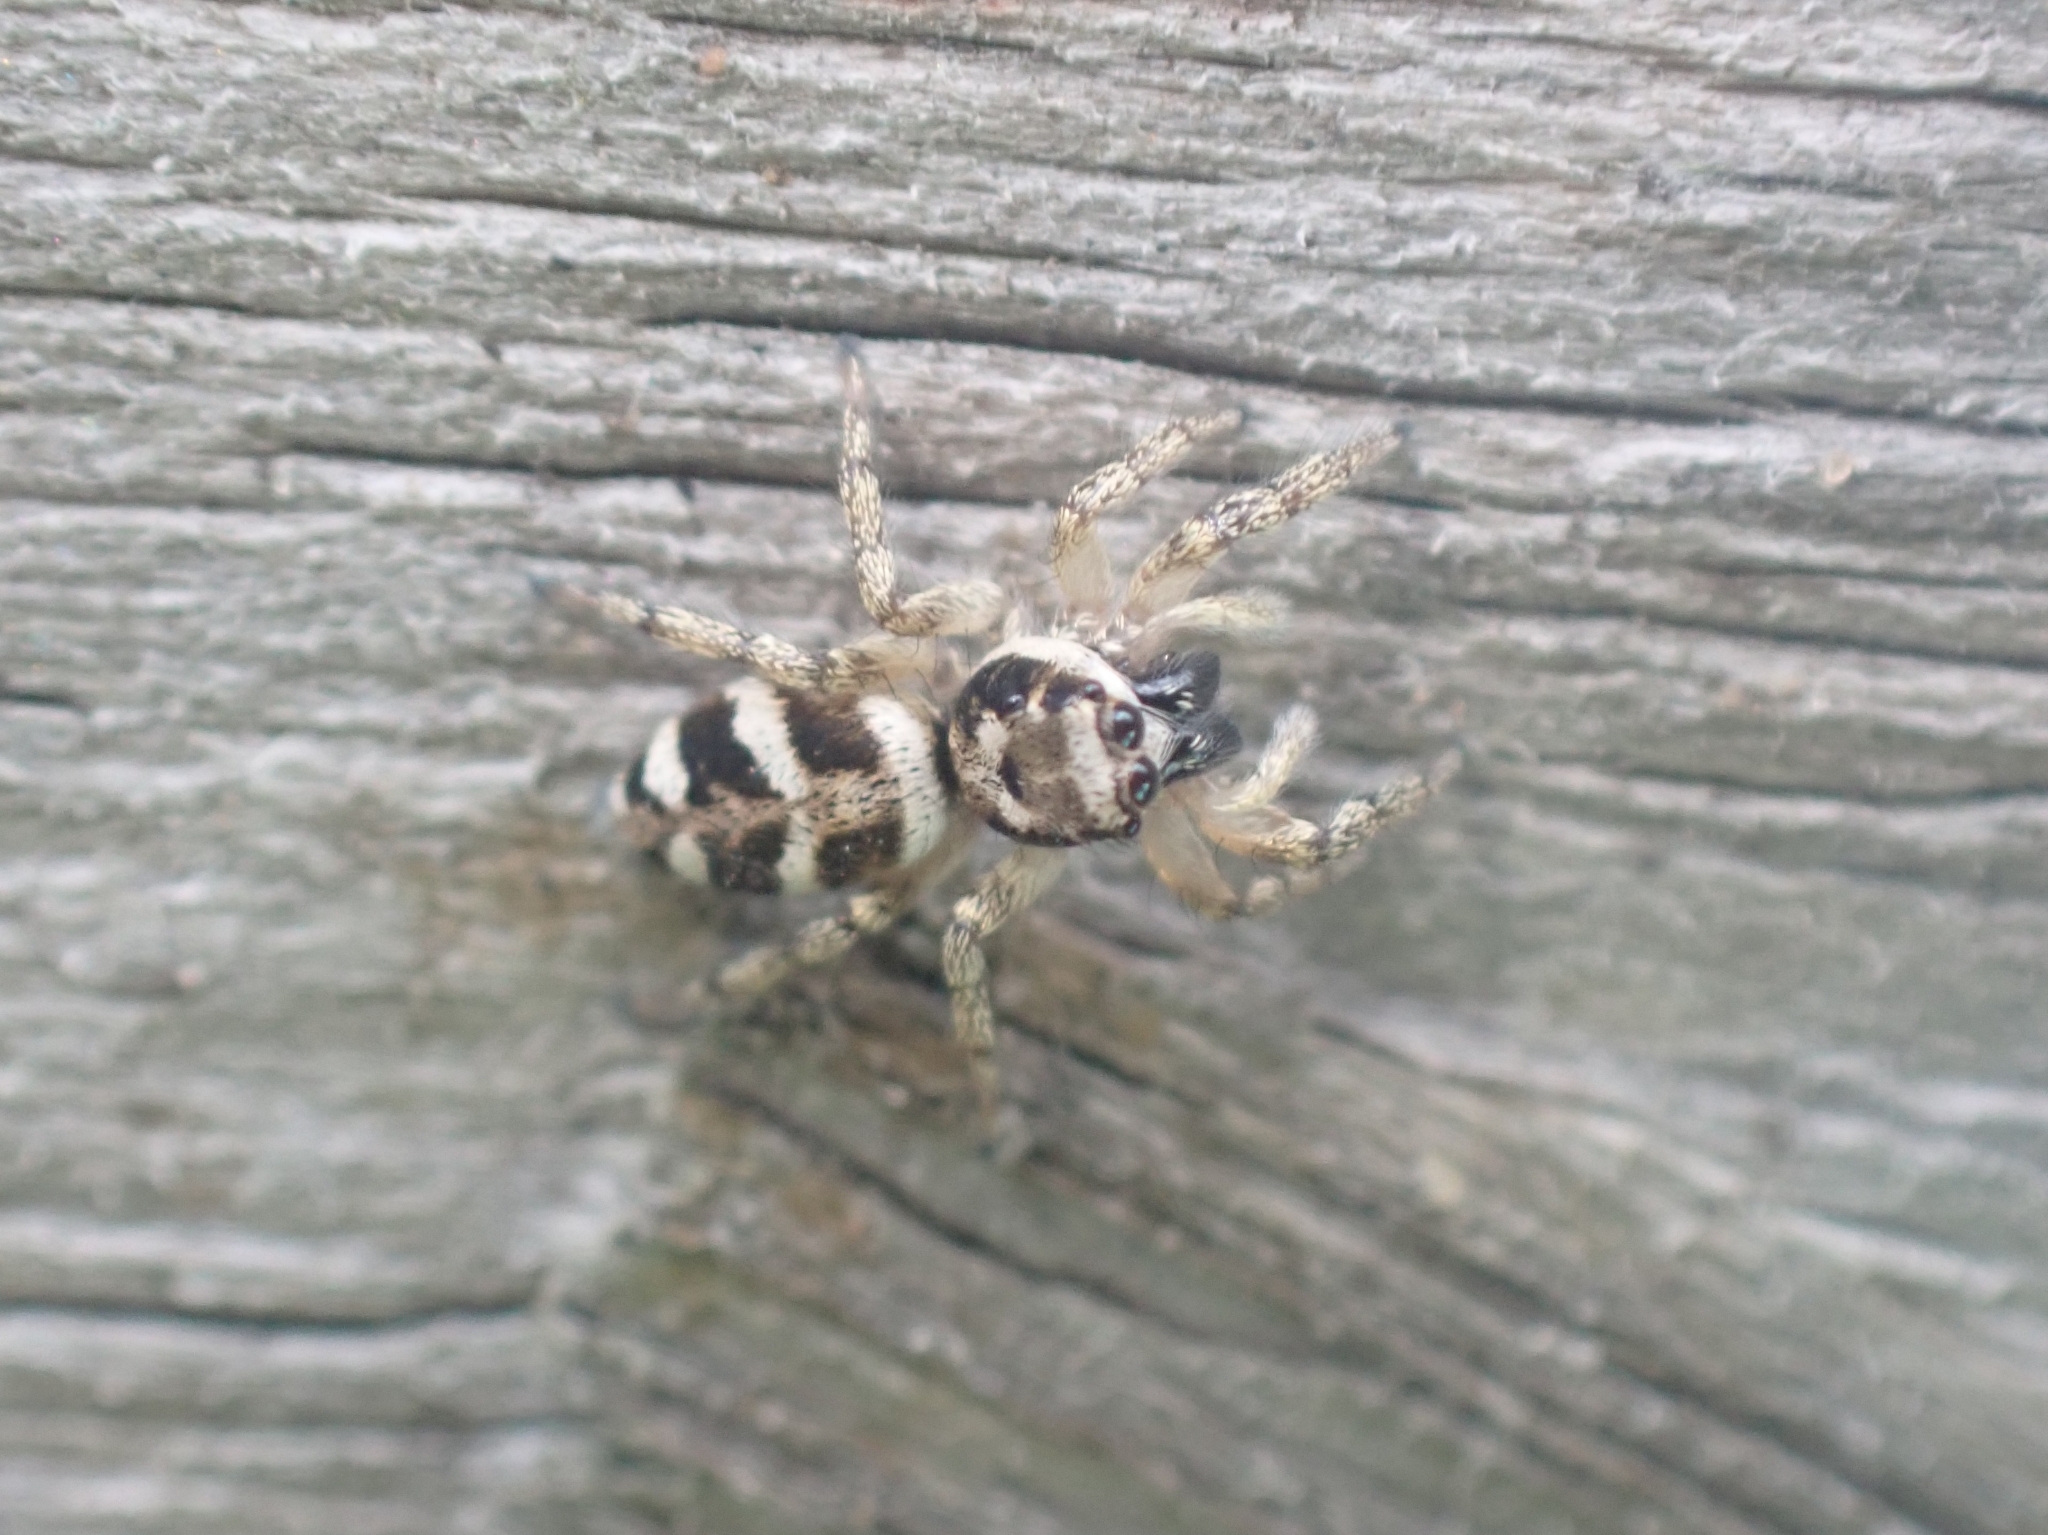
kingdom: Animalia
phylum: Arthropoda
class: Arachnida
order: Araneae
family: Salticidae
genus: Salticus
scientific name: Salticus scenicus
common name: Zebra jumper
